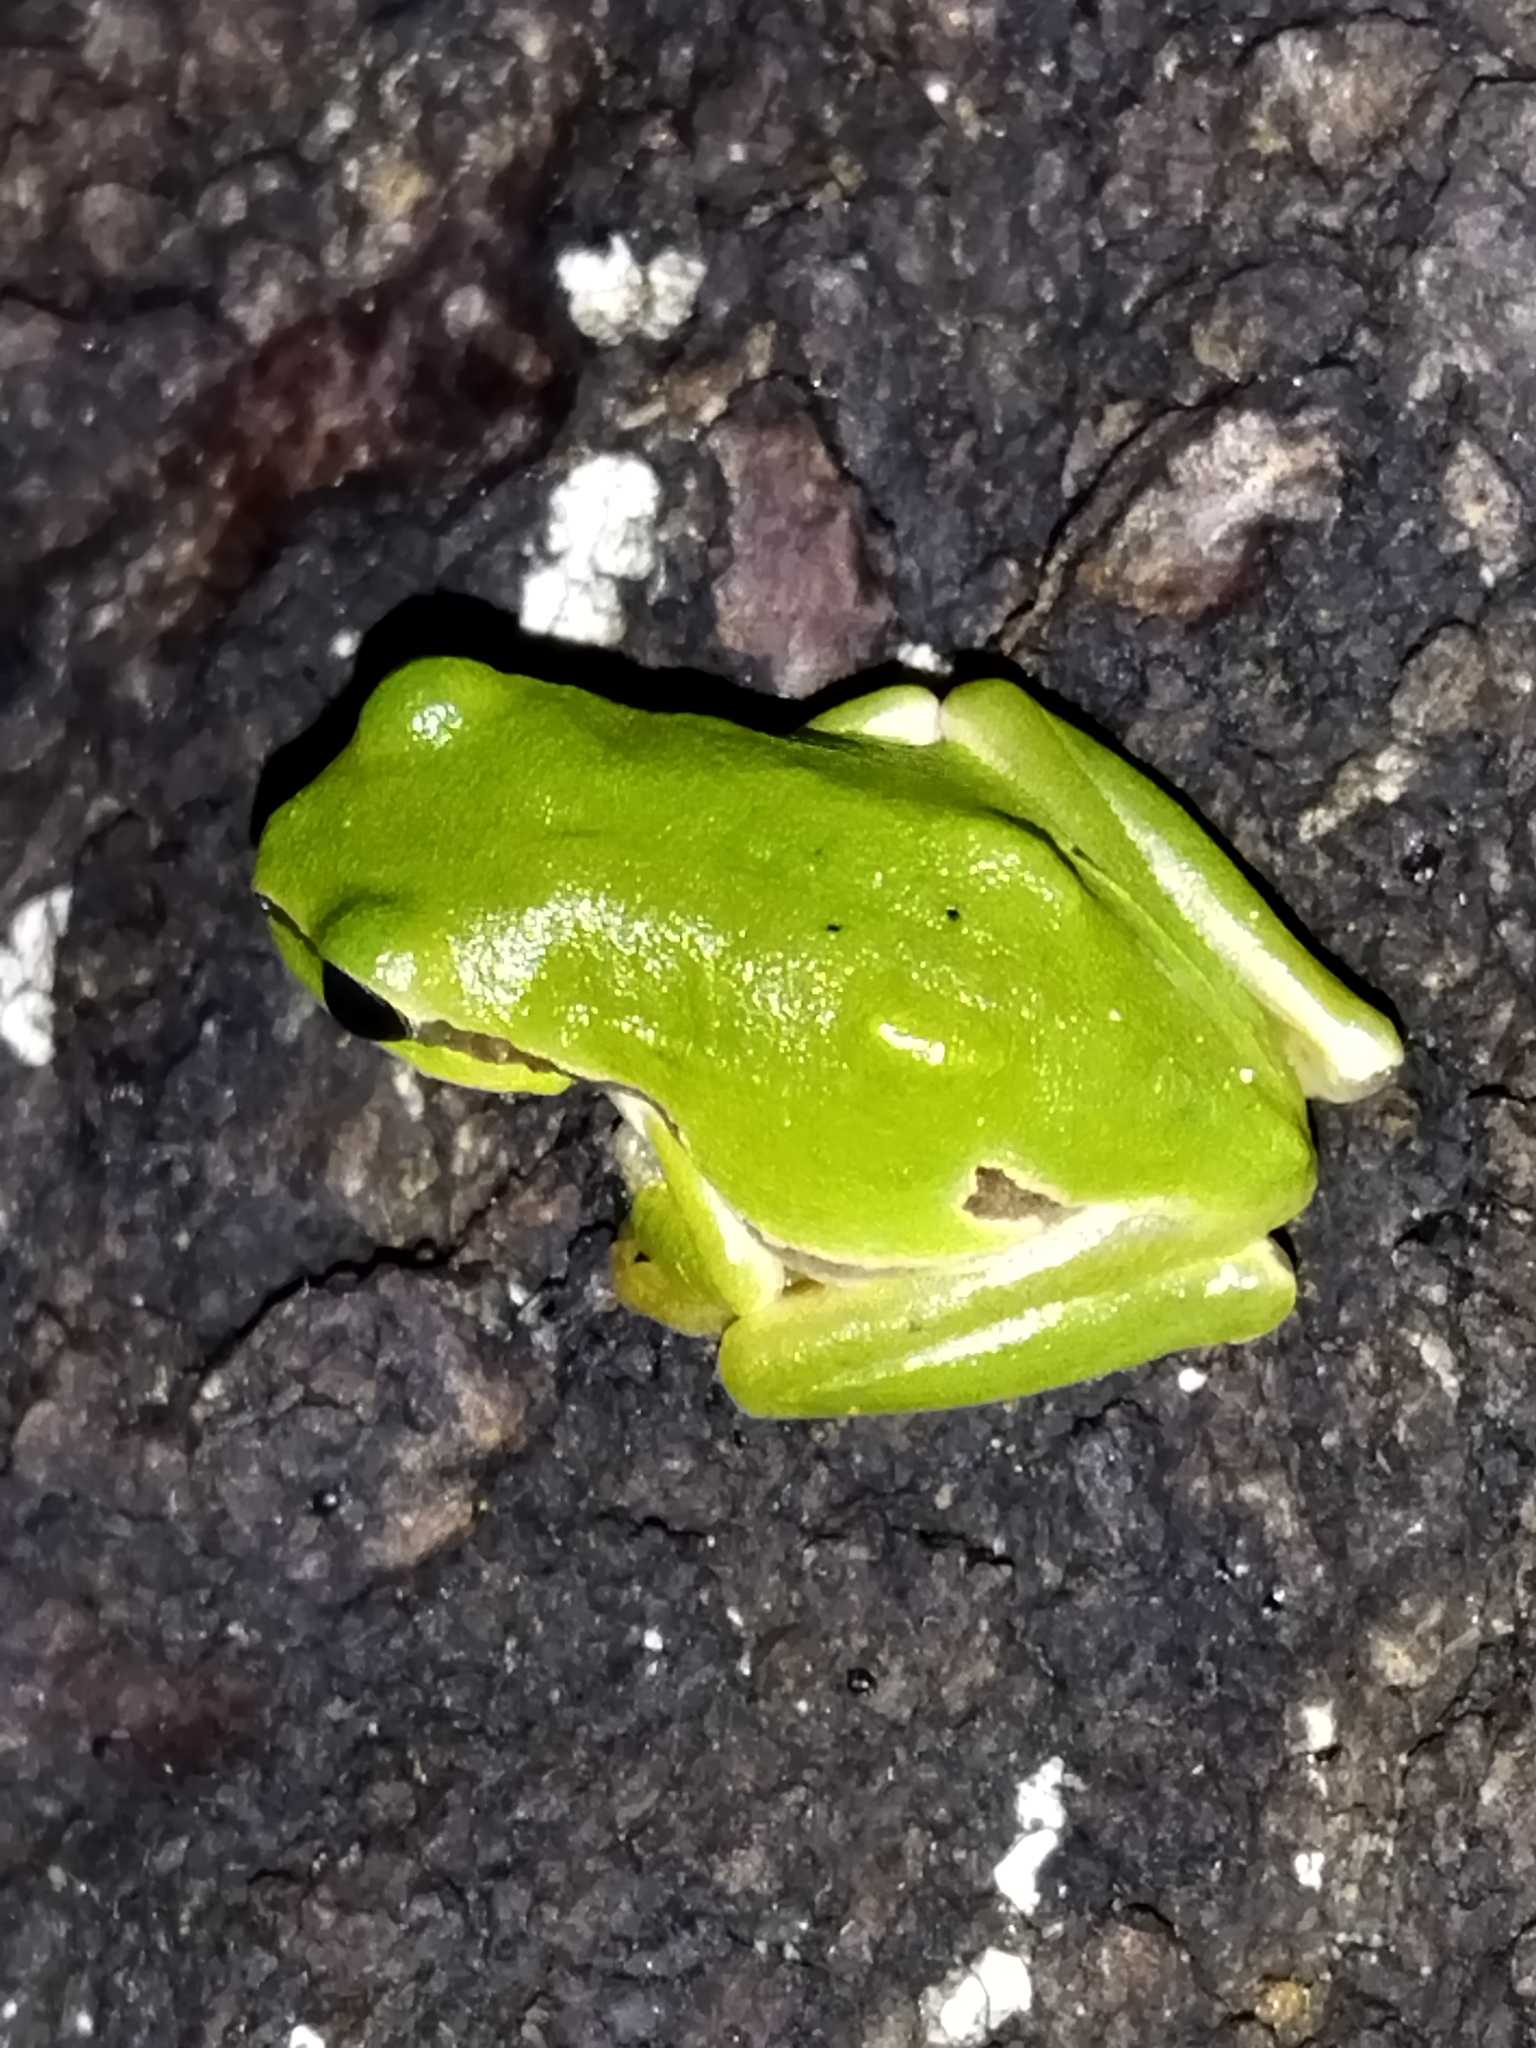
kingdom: Animalia
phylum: Chordata
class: Amphibia
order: Anura
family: Hylidae
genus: Hyla
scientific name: Hyla orientalis
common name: Caucasian treefrog
